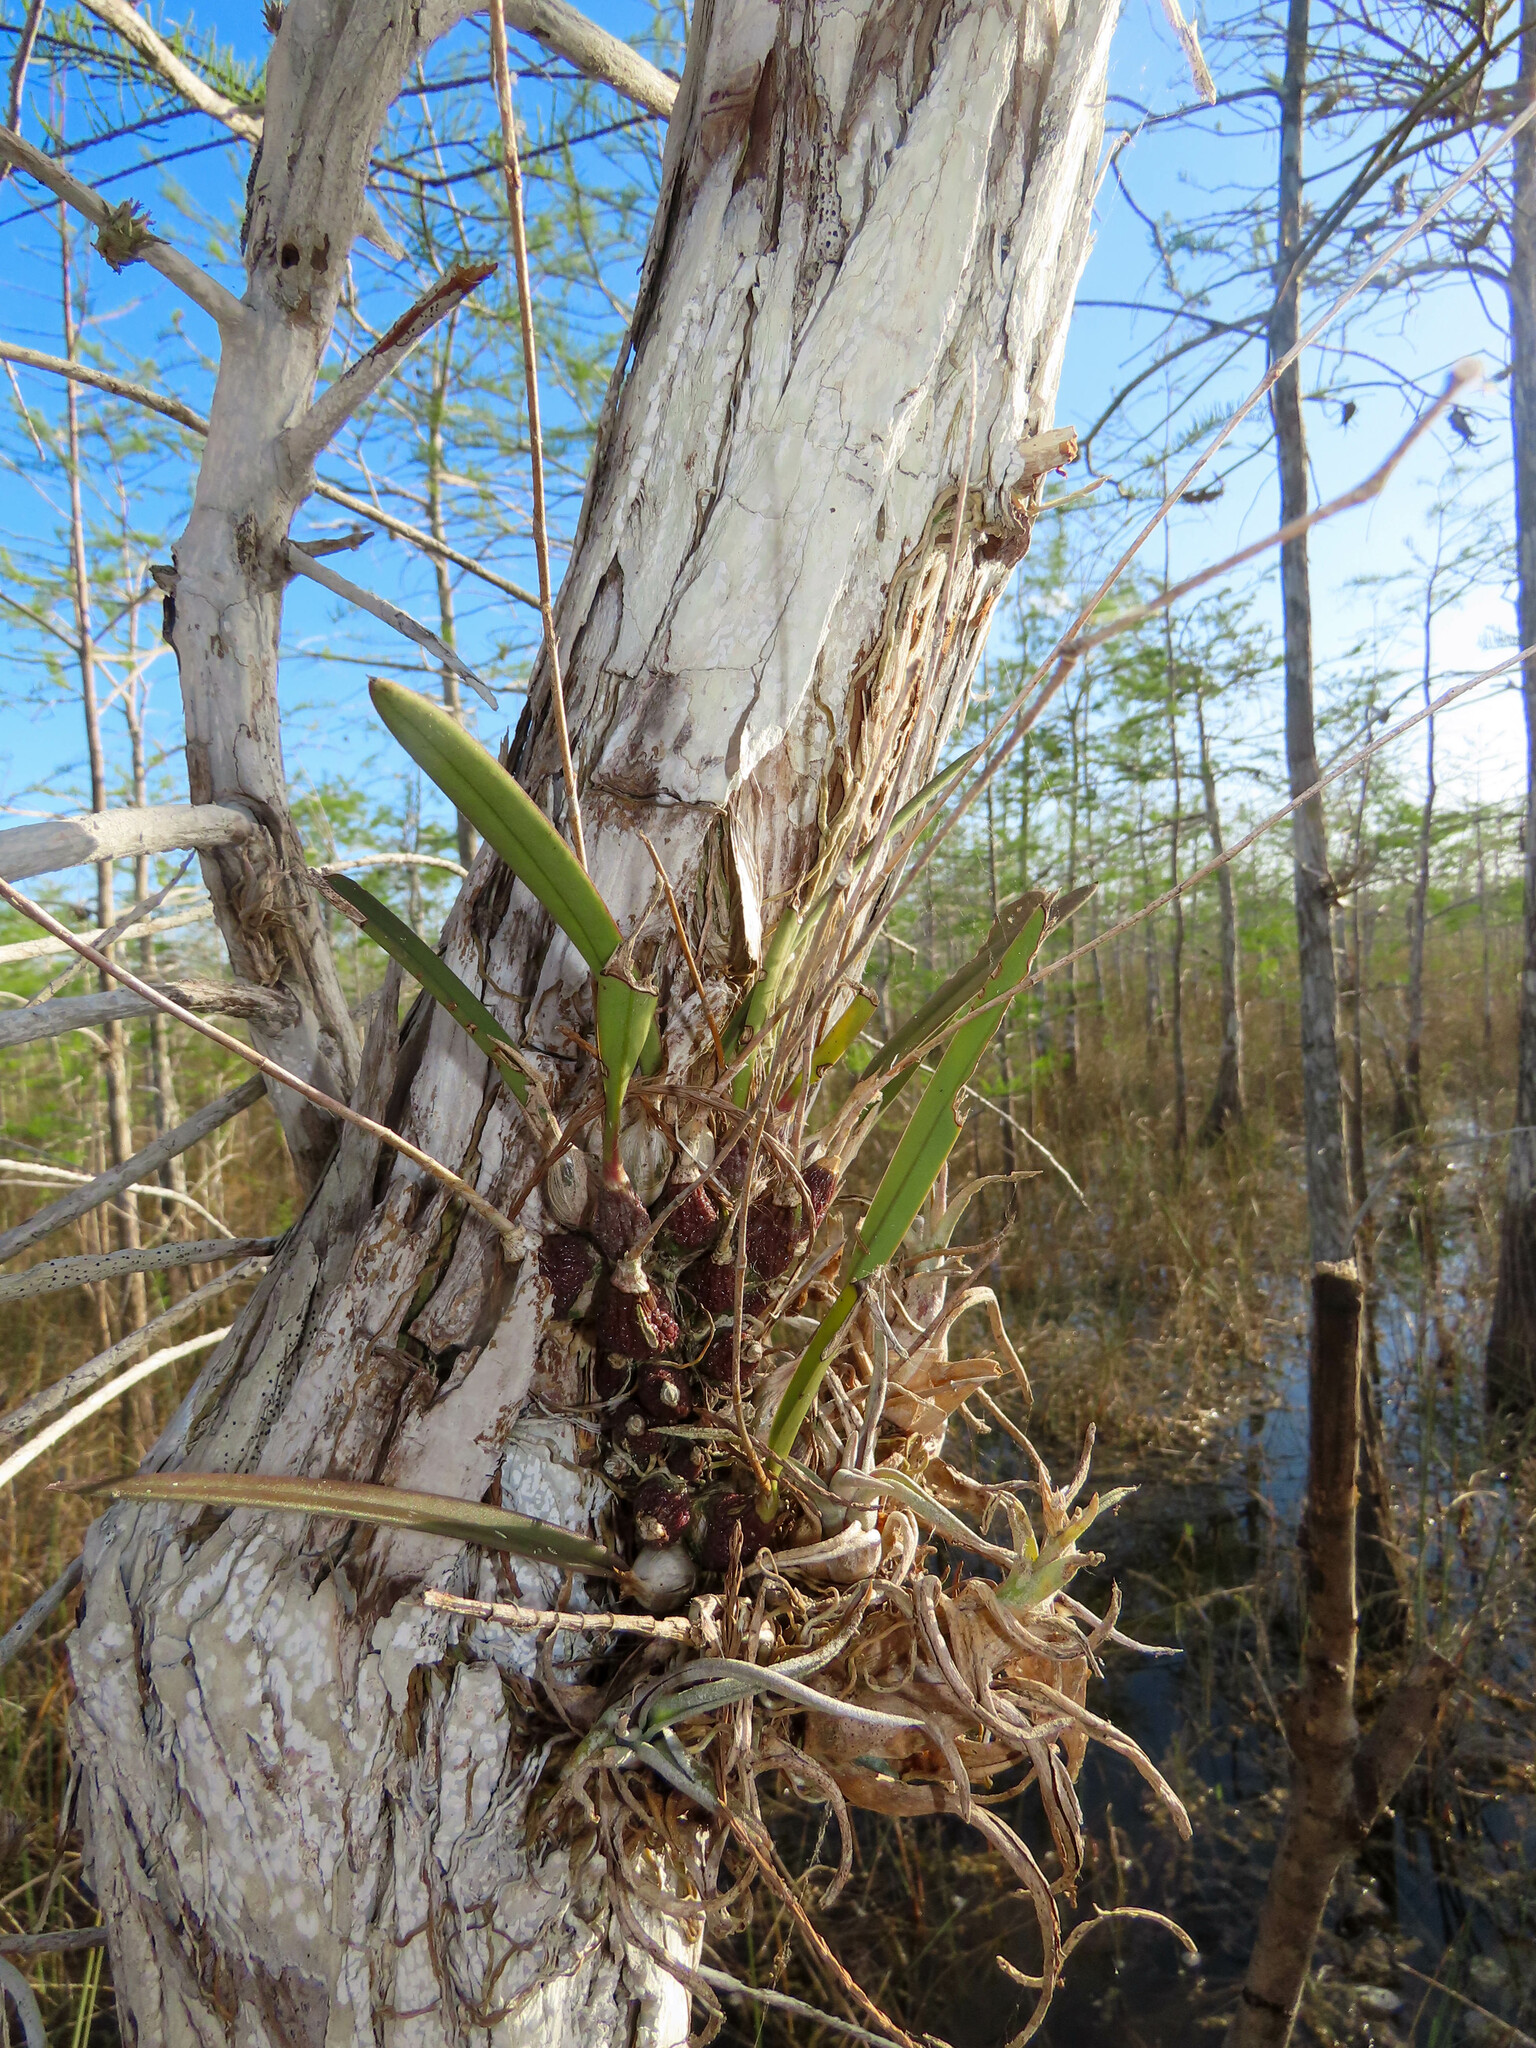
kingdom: Plantae
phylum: Tracheophyta
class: Liliopsida
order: Asparagales
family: Orchidaceae
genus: Encyclia
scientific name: Encyclia tampensis
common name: Florida butterfly orchid
